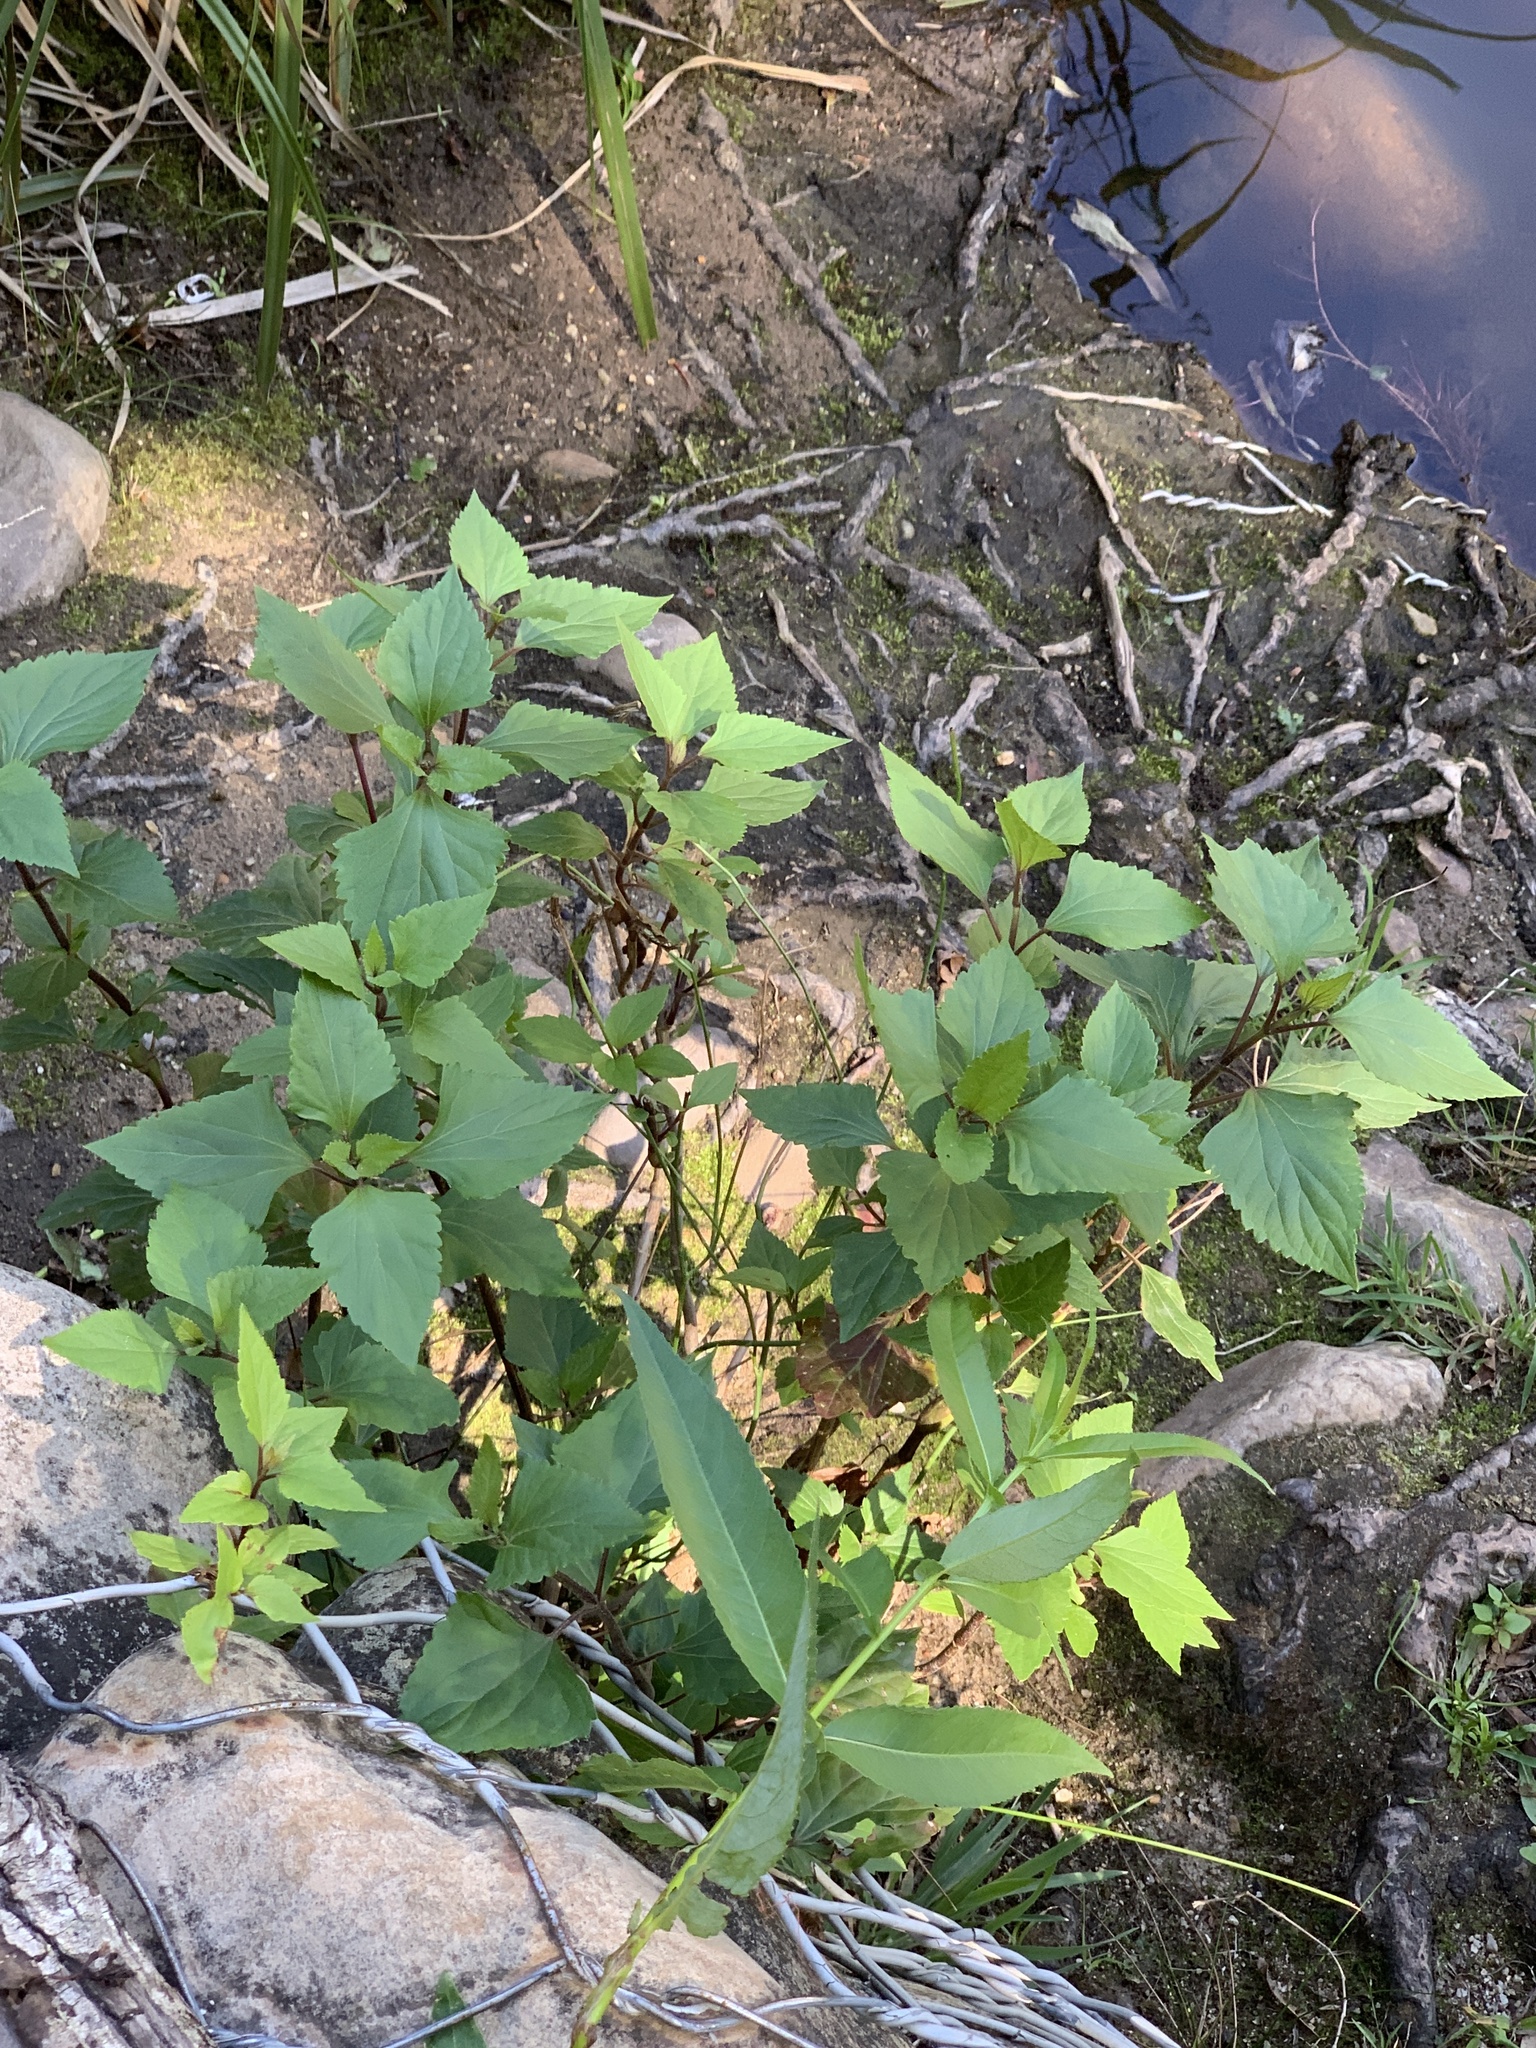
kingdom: Plantae
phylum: Tracheophyta
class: Magnoliopsida
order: Asterales
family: Asteraceae
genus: Ageratina
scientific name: Ageratina adenophora
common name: Sticky snakeroot
